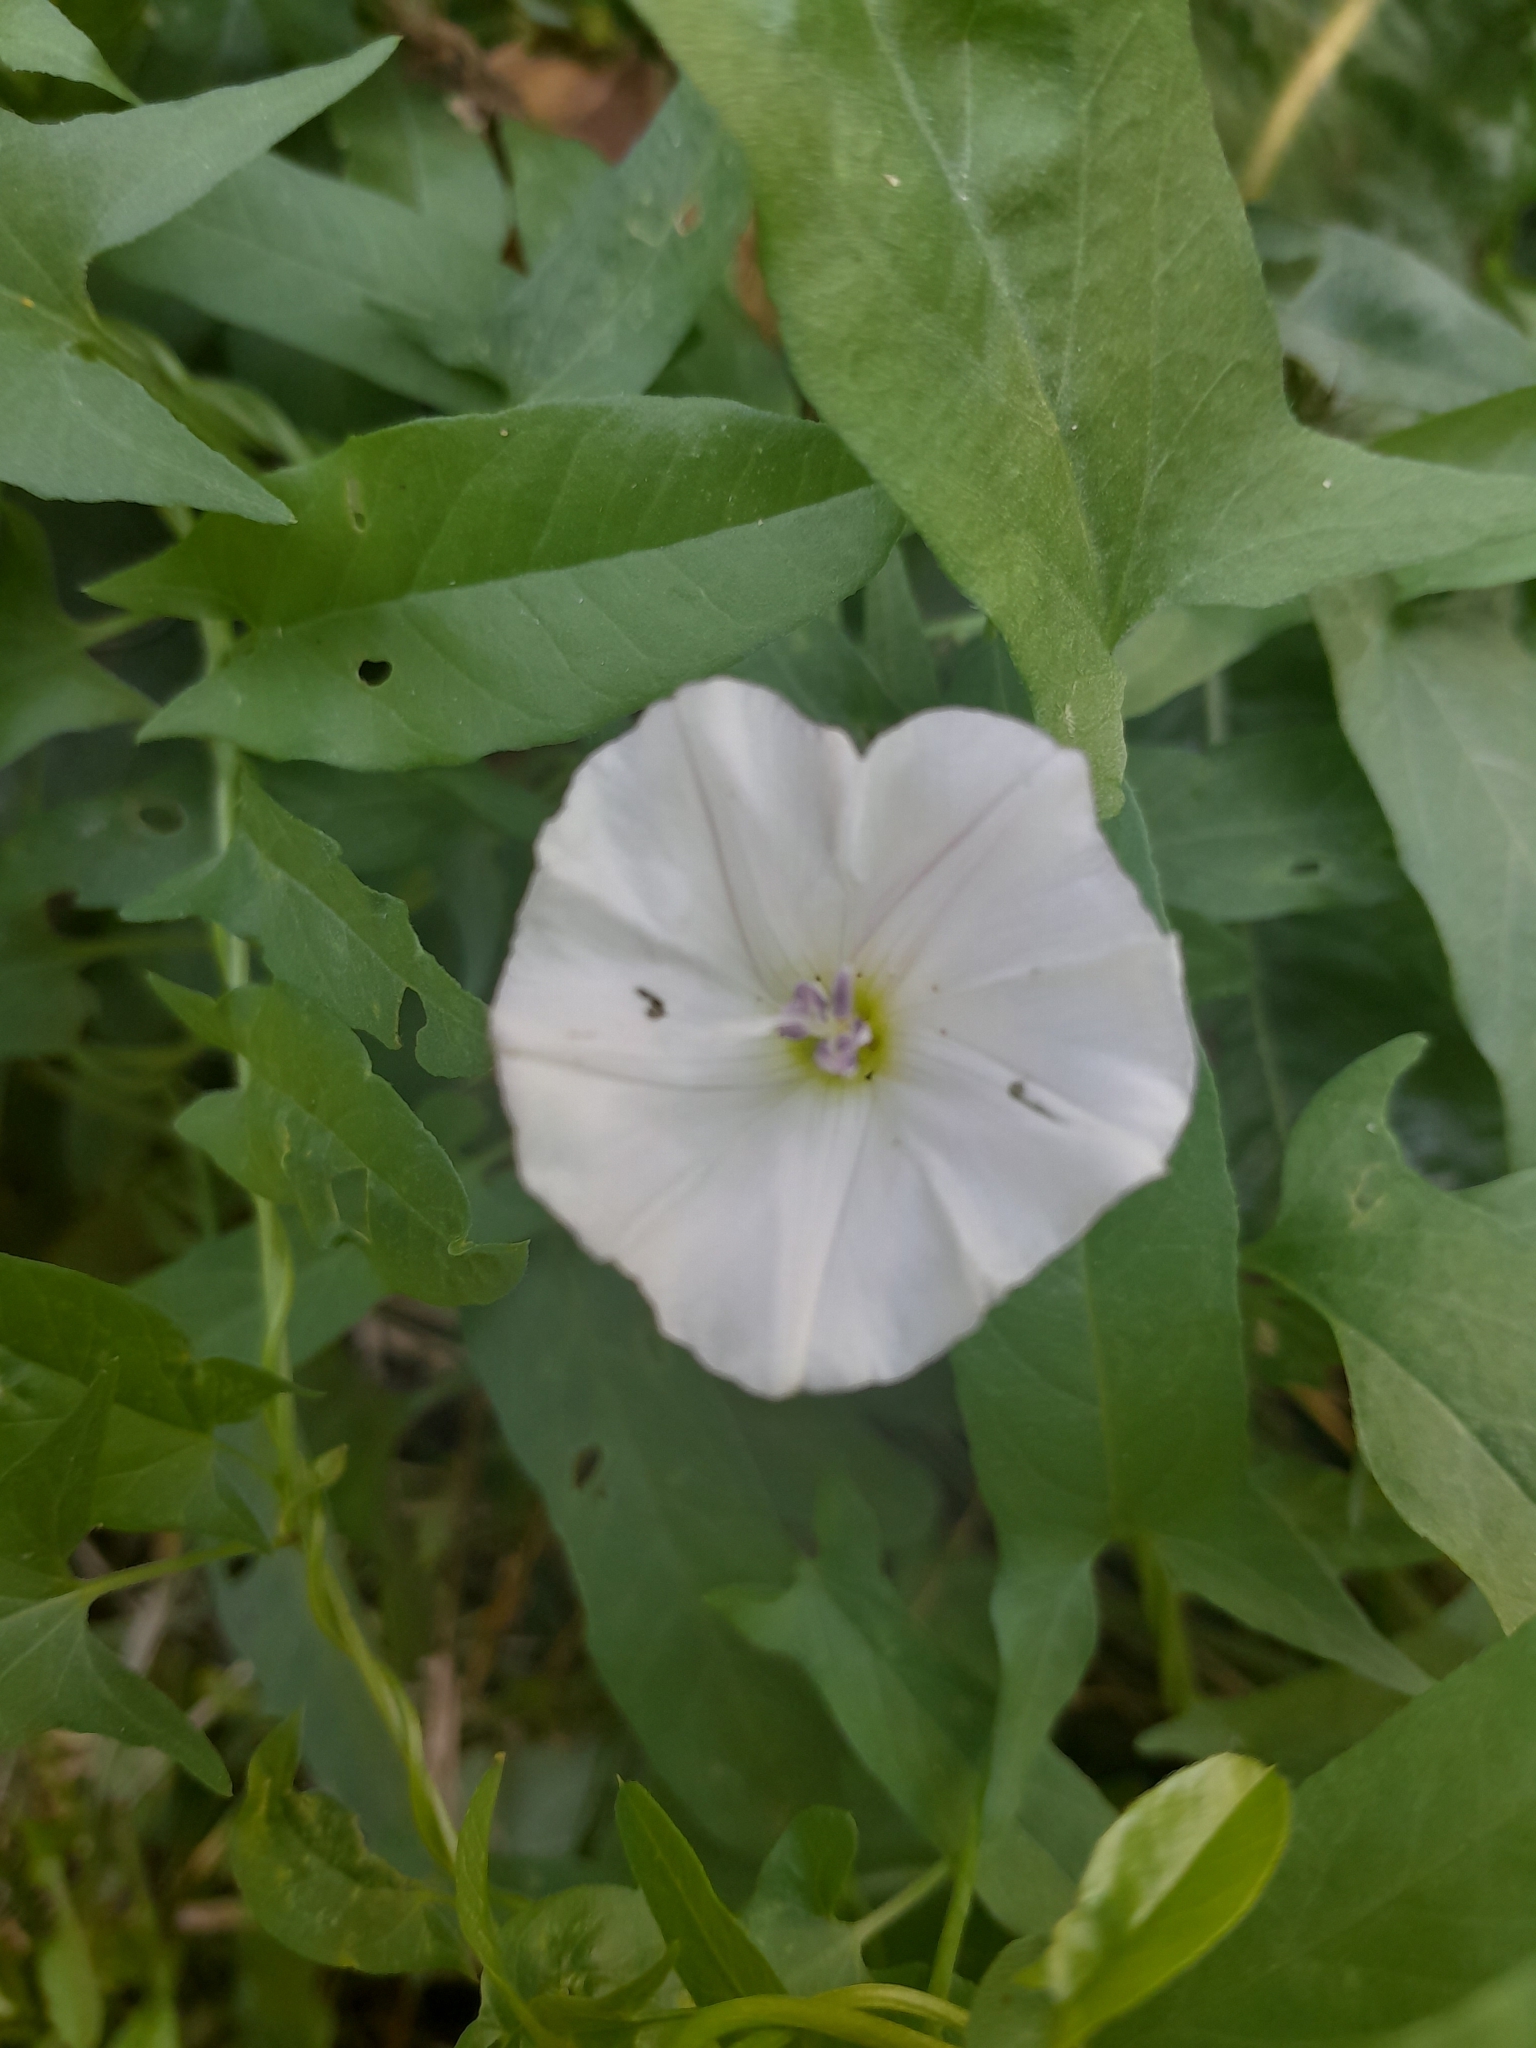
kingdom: Plantae
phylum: Tracheophyta
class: Magnoliopsida
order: Solanales
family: Convolvulaceae
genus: Convolvulus
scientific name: Convolvulus arvensis
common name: Field bindweed
